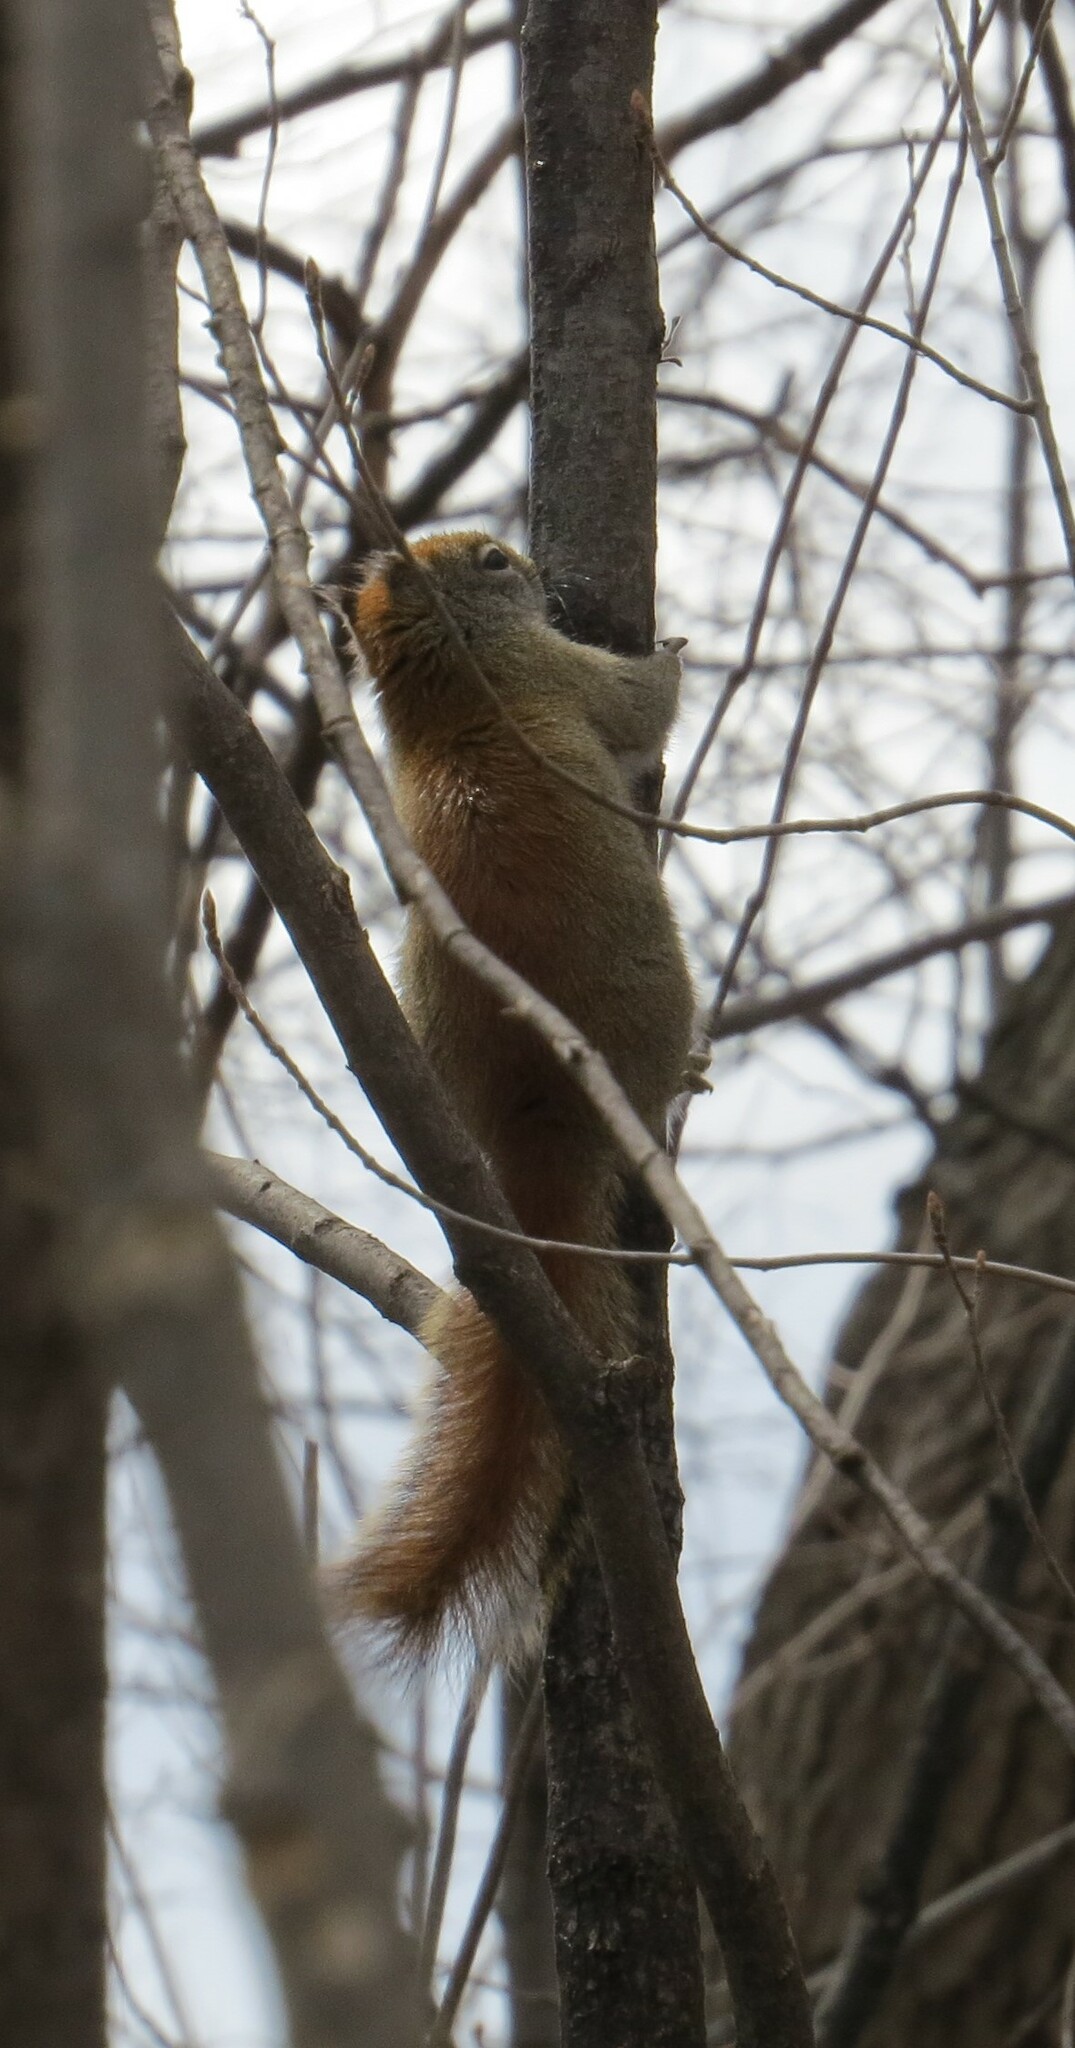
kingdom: Animalia
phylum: Chordata
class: Mammalia
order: Rodentia
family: Sciuridae
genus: Tamiasciurus
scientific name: Tamiasciurus hudsonicus
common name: Red squirrel
